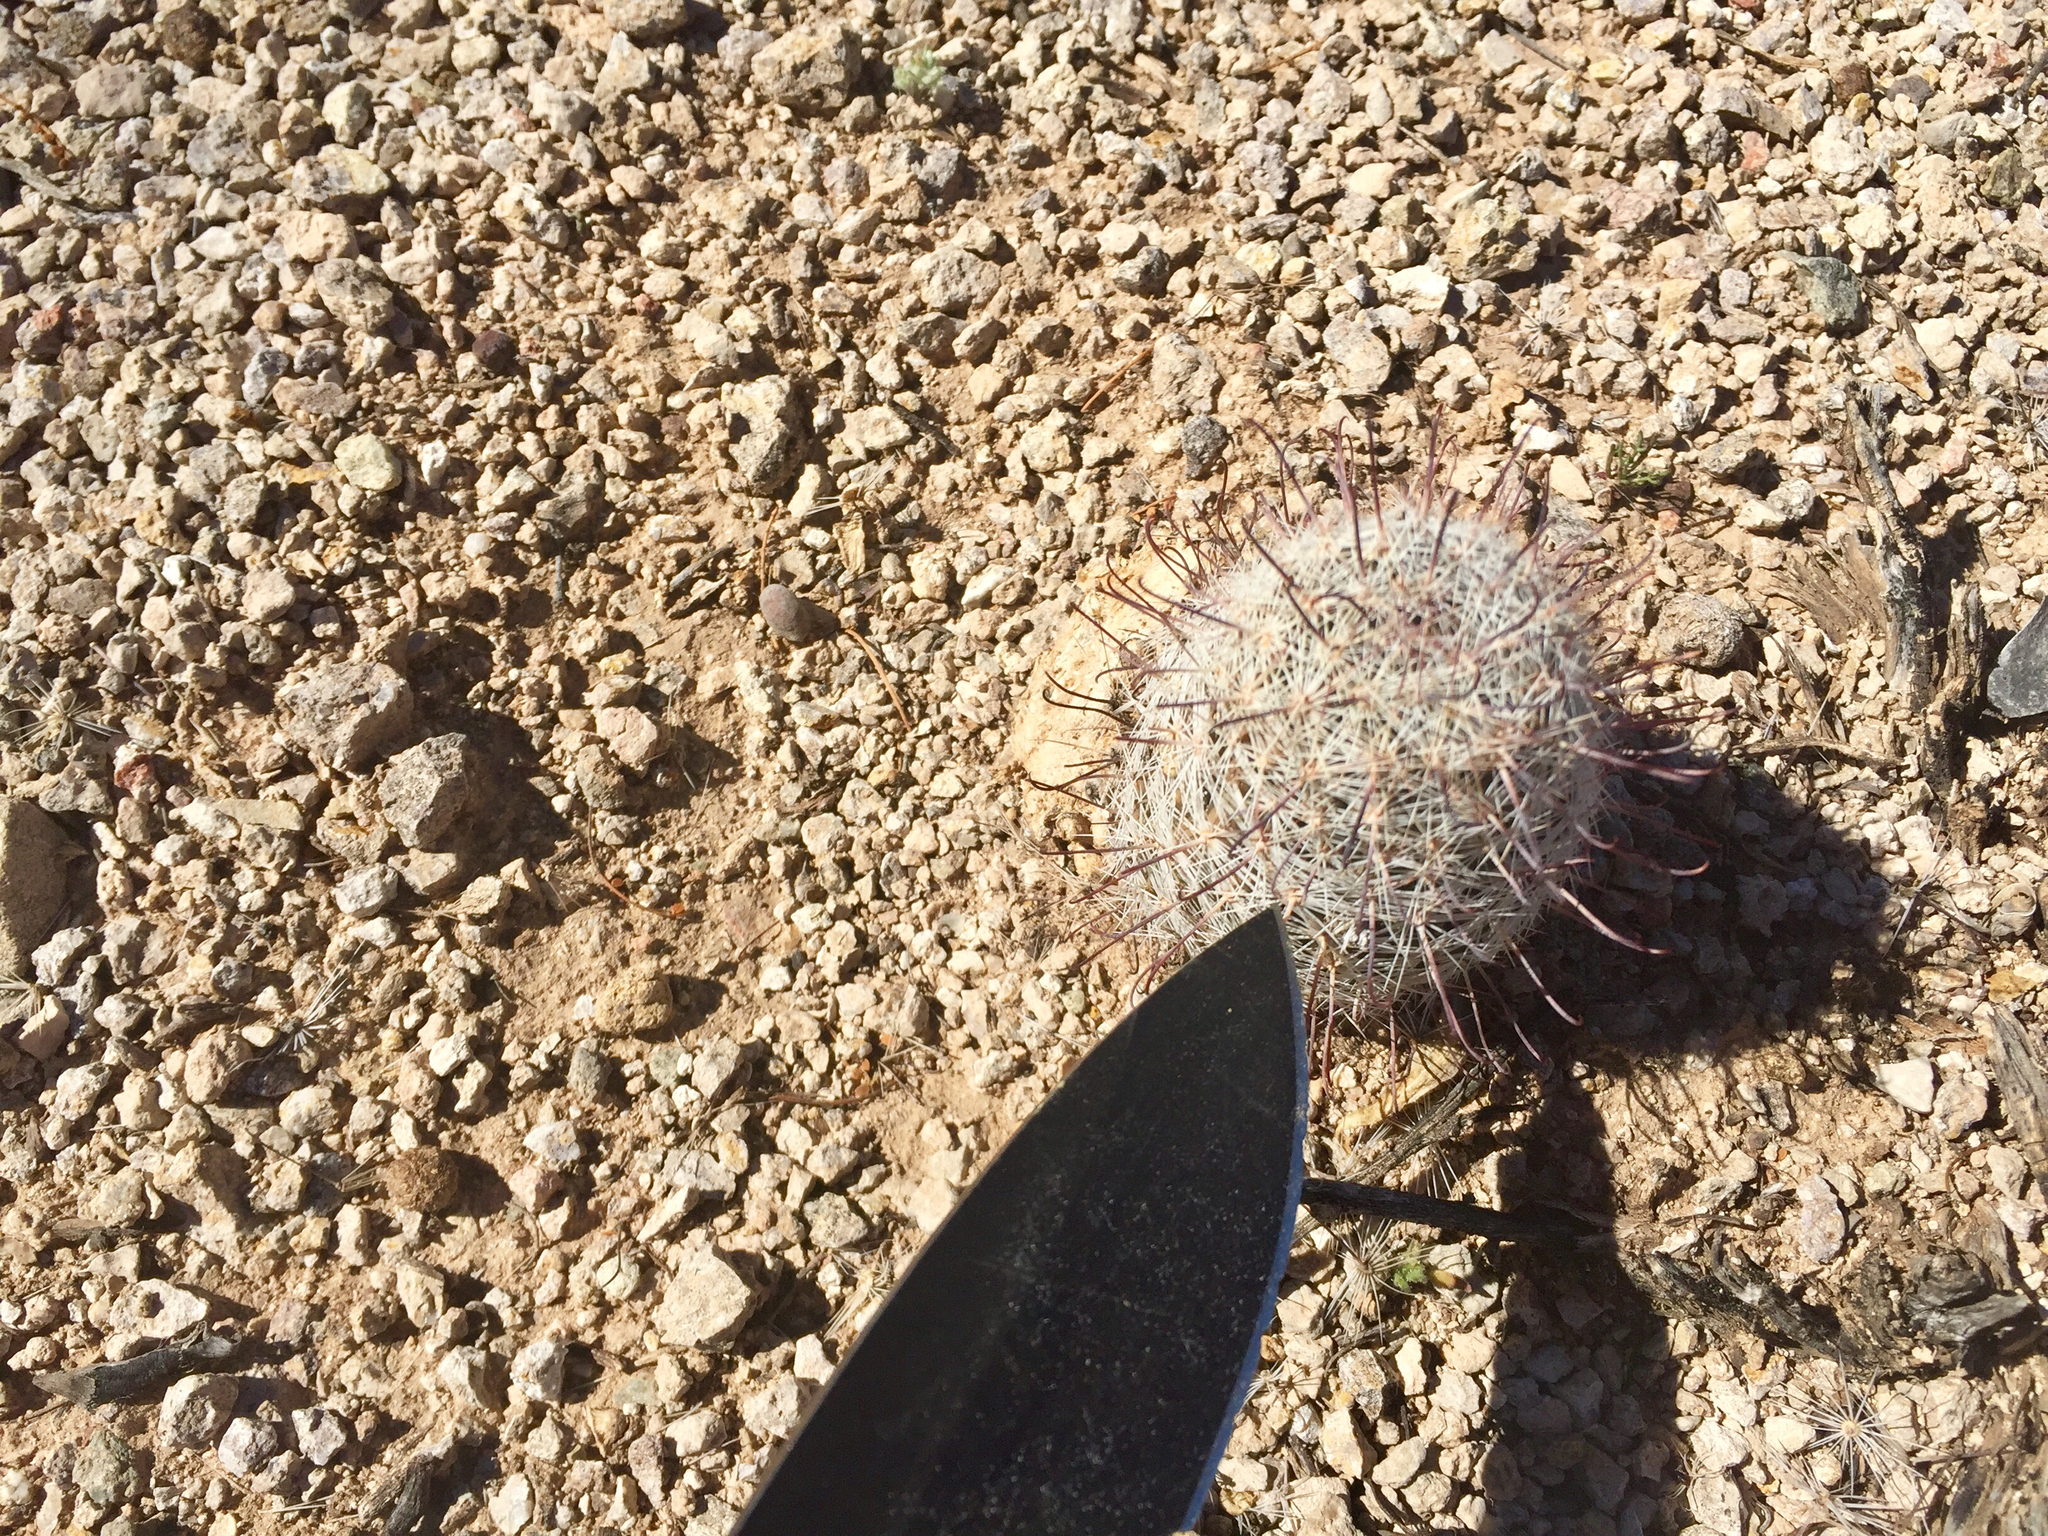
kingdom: Plantae
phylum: Tracheophyta
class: Magnoliopsida
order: Caryophyllales
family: Cactaceae
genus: Cochemiea
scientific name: Cochemiea grahamii
